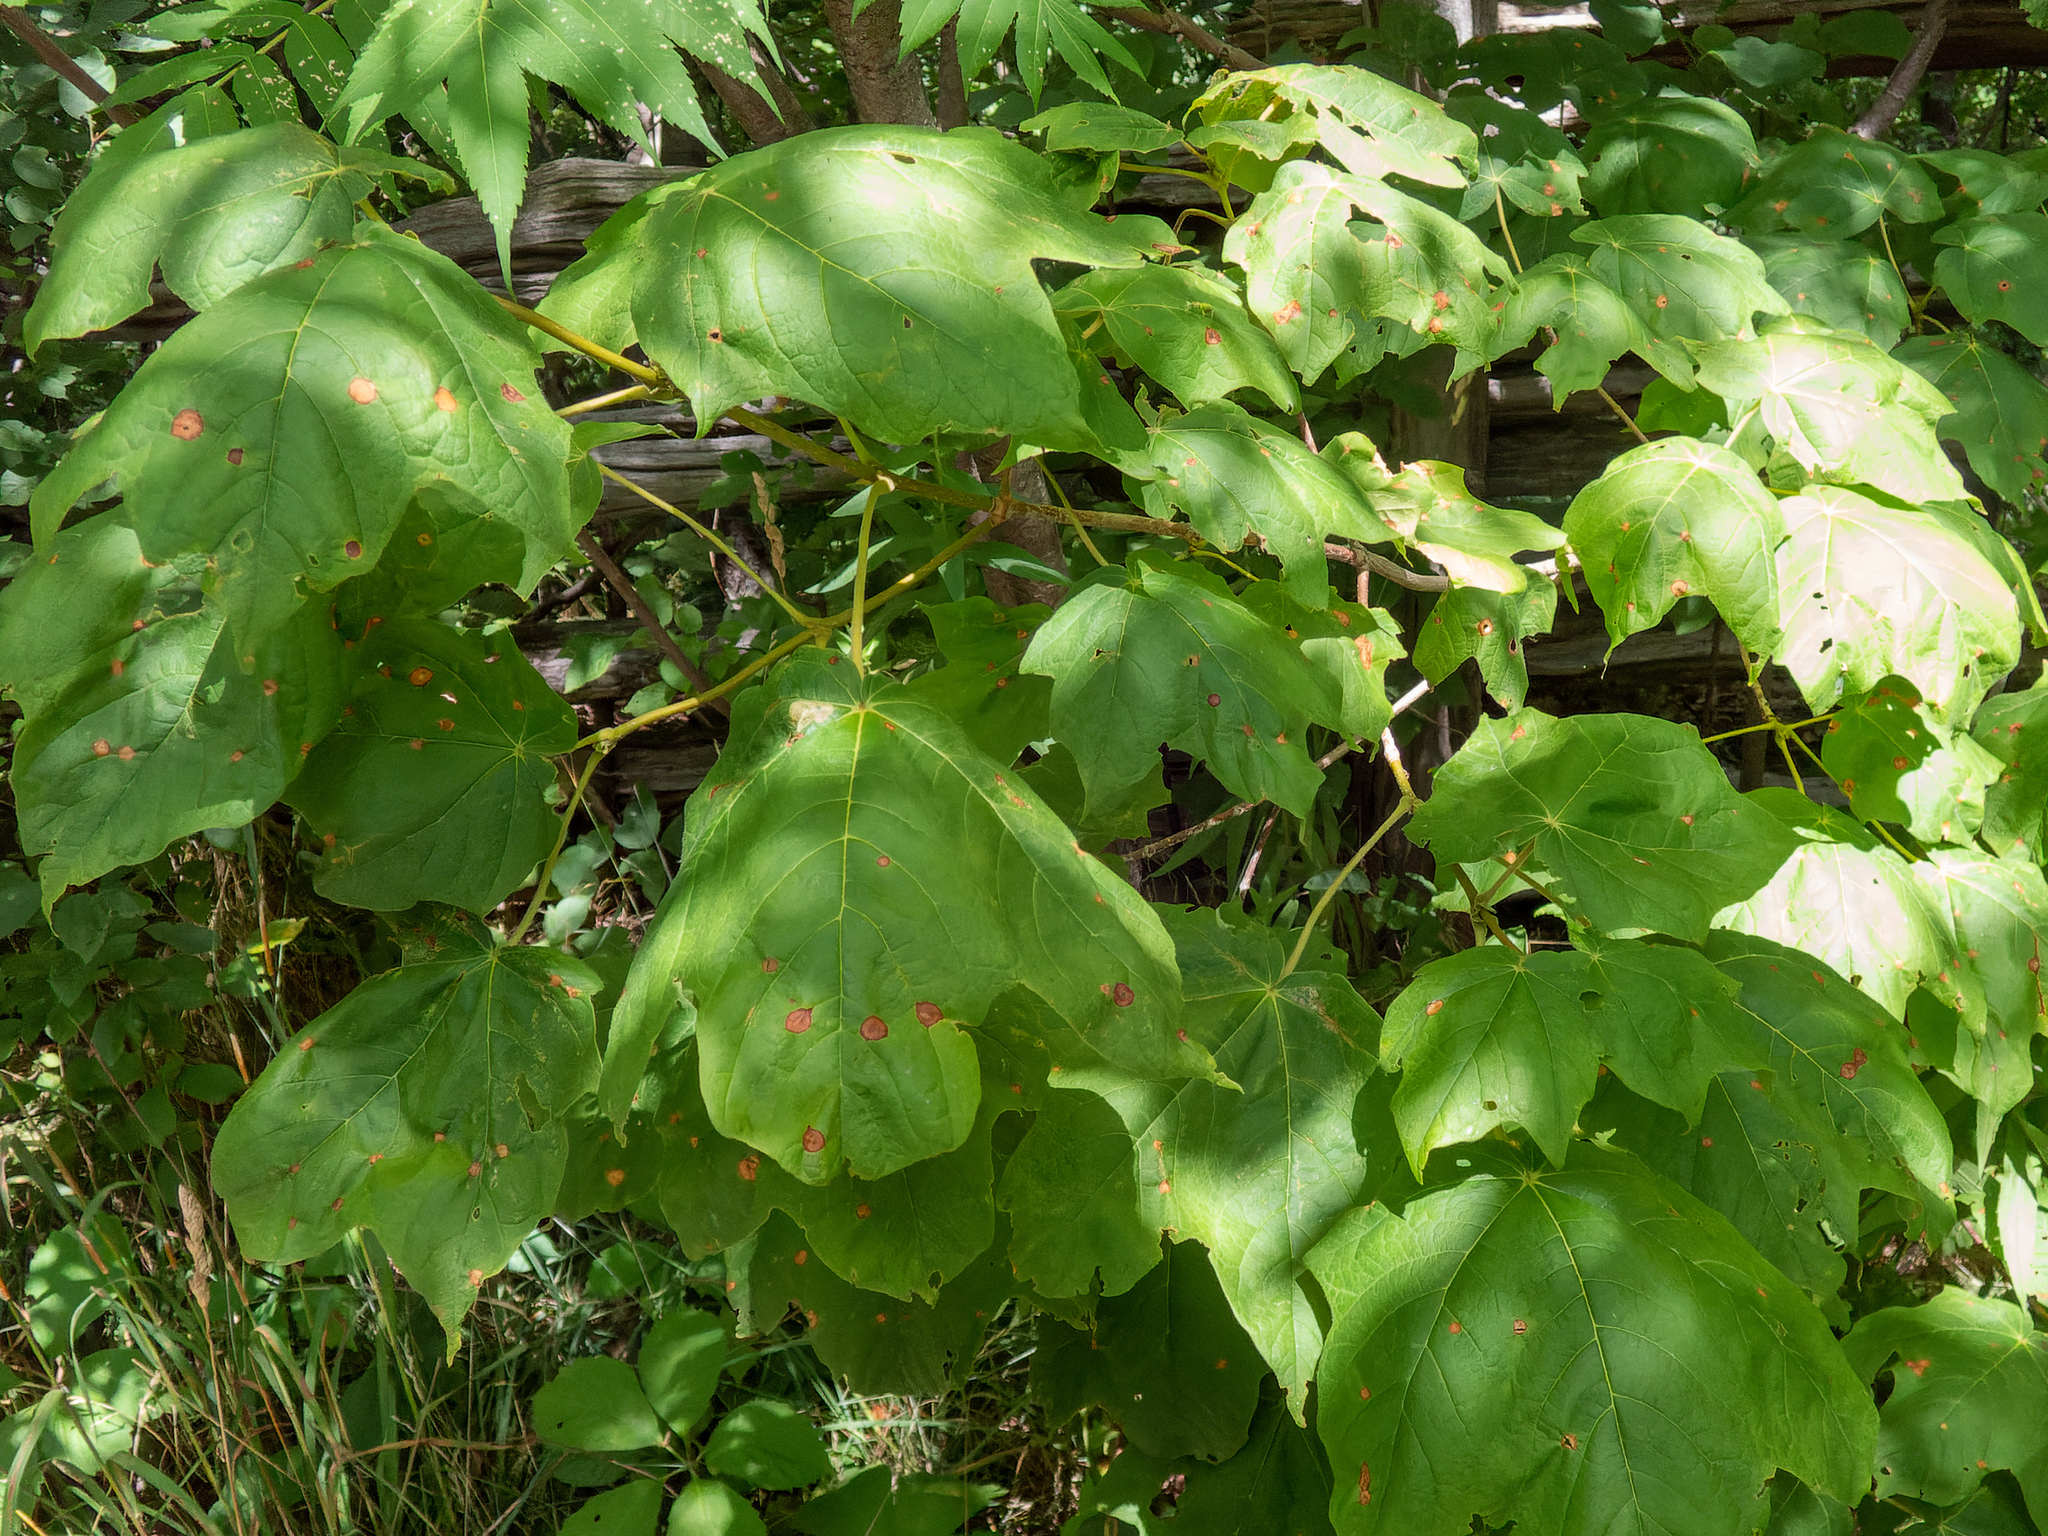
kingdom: Plantae
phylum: Tracheophyta
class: Magnoliopsida
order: Sapindales
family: Sapindaceae
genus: Acer
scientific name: Acer nigrum
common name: Black maple
